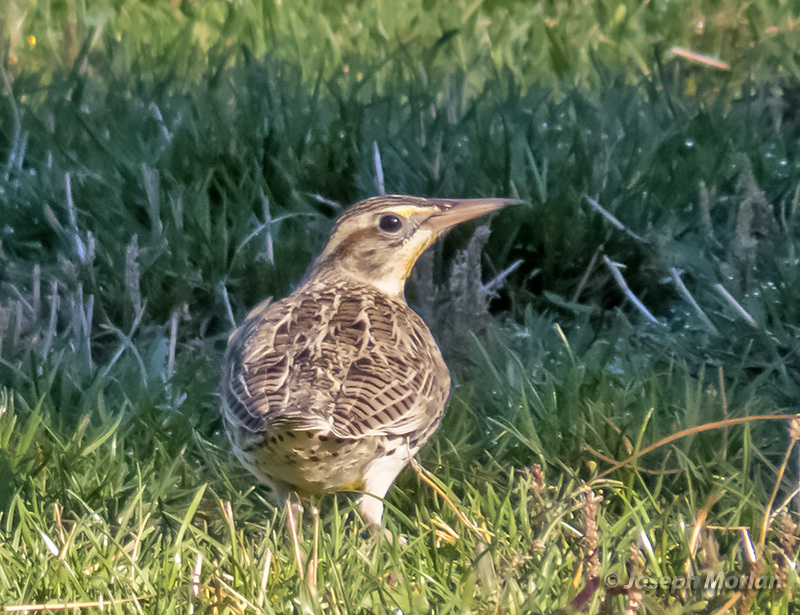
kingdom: Animalia
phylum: Chordata
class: Aves
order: Passeriformes
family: Icteridae
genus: Sturnella
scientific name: Sturnella neglecta
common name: Western meadowlark
